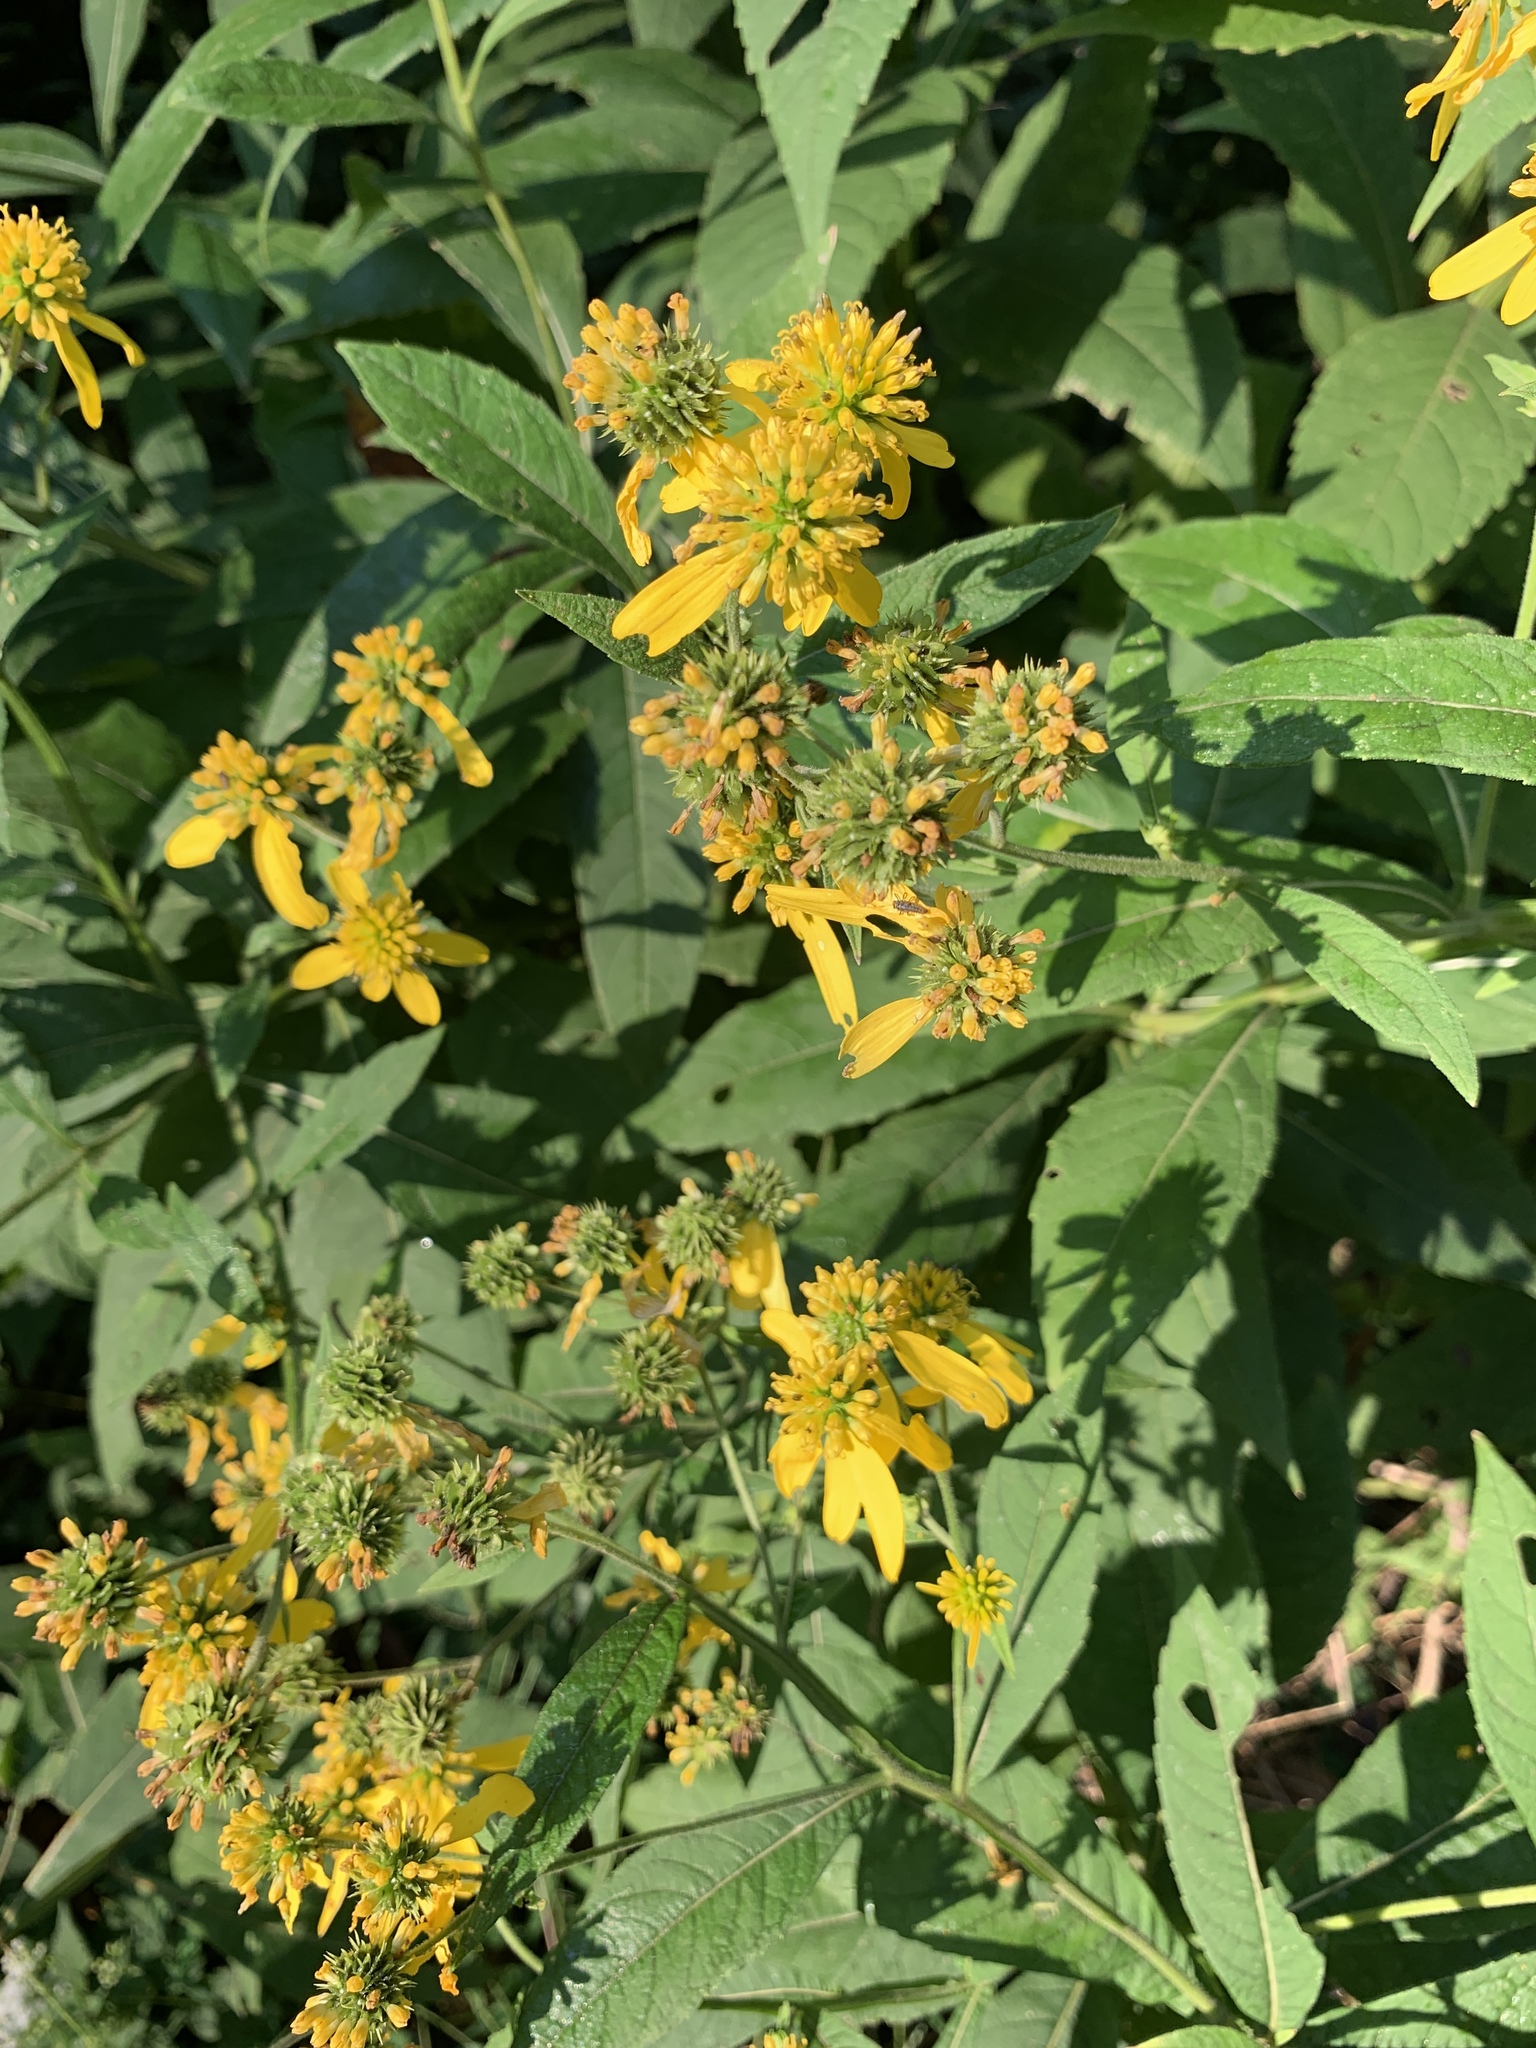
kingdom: Plantae
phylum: Tracheophyta
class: Magnoliopsida
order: Asterales
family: Asteraceae
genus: Verbesina
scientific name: Verbesina alternifolia
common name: Wingstem
